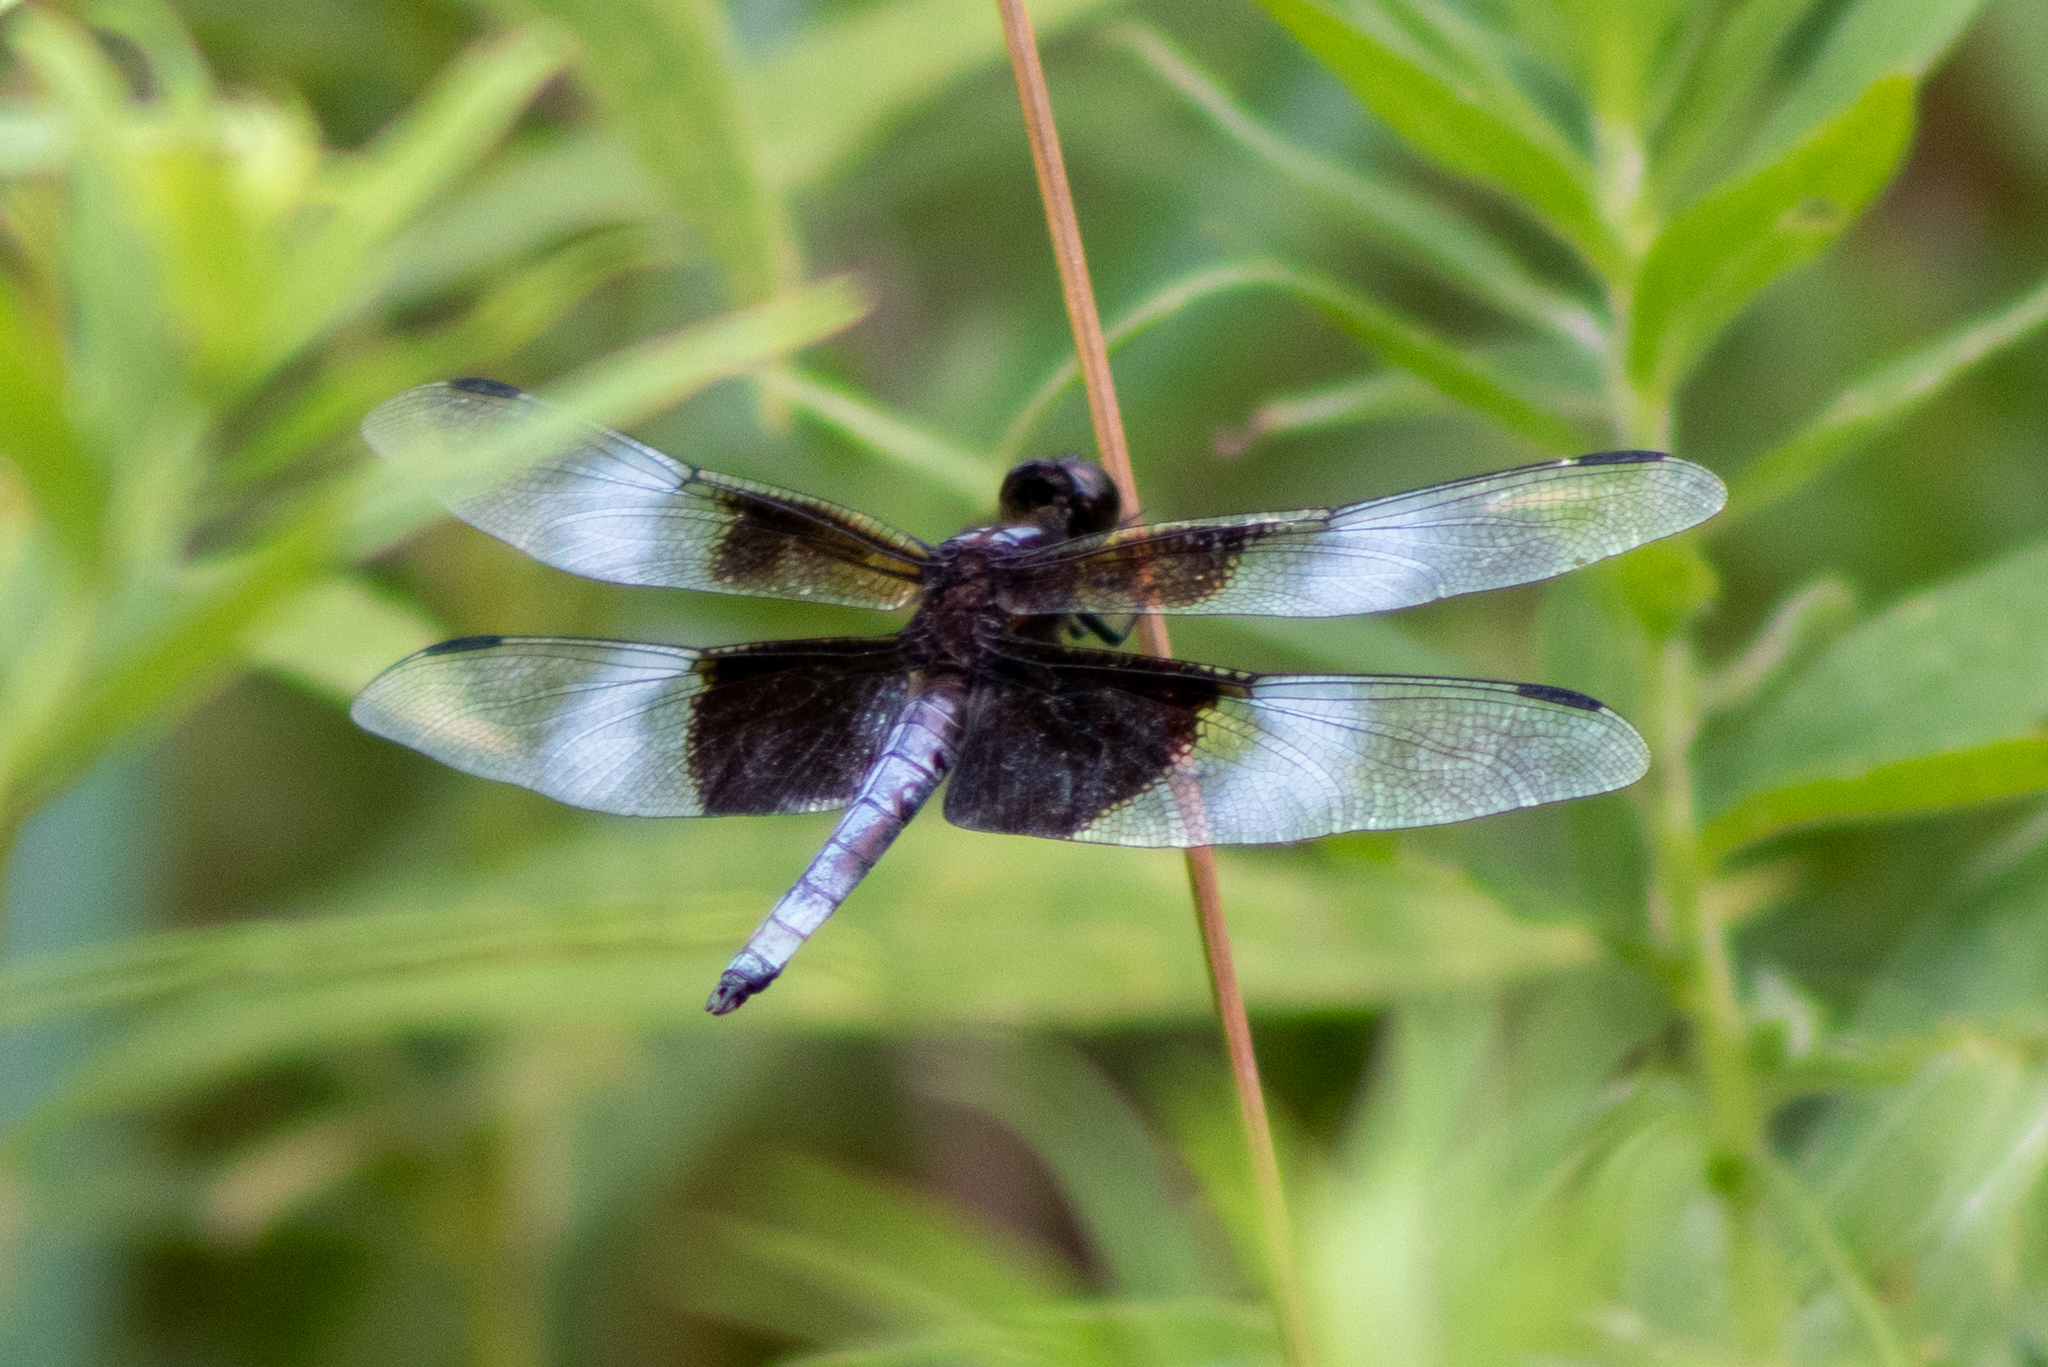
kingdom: Animalia
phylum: Arthropoda
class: Insecta
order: Odonata
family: Libellulidae
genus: Libellula
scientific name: Libellula luctuosa
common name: Widow skimmer
